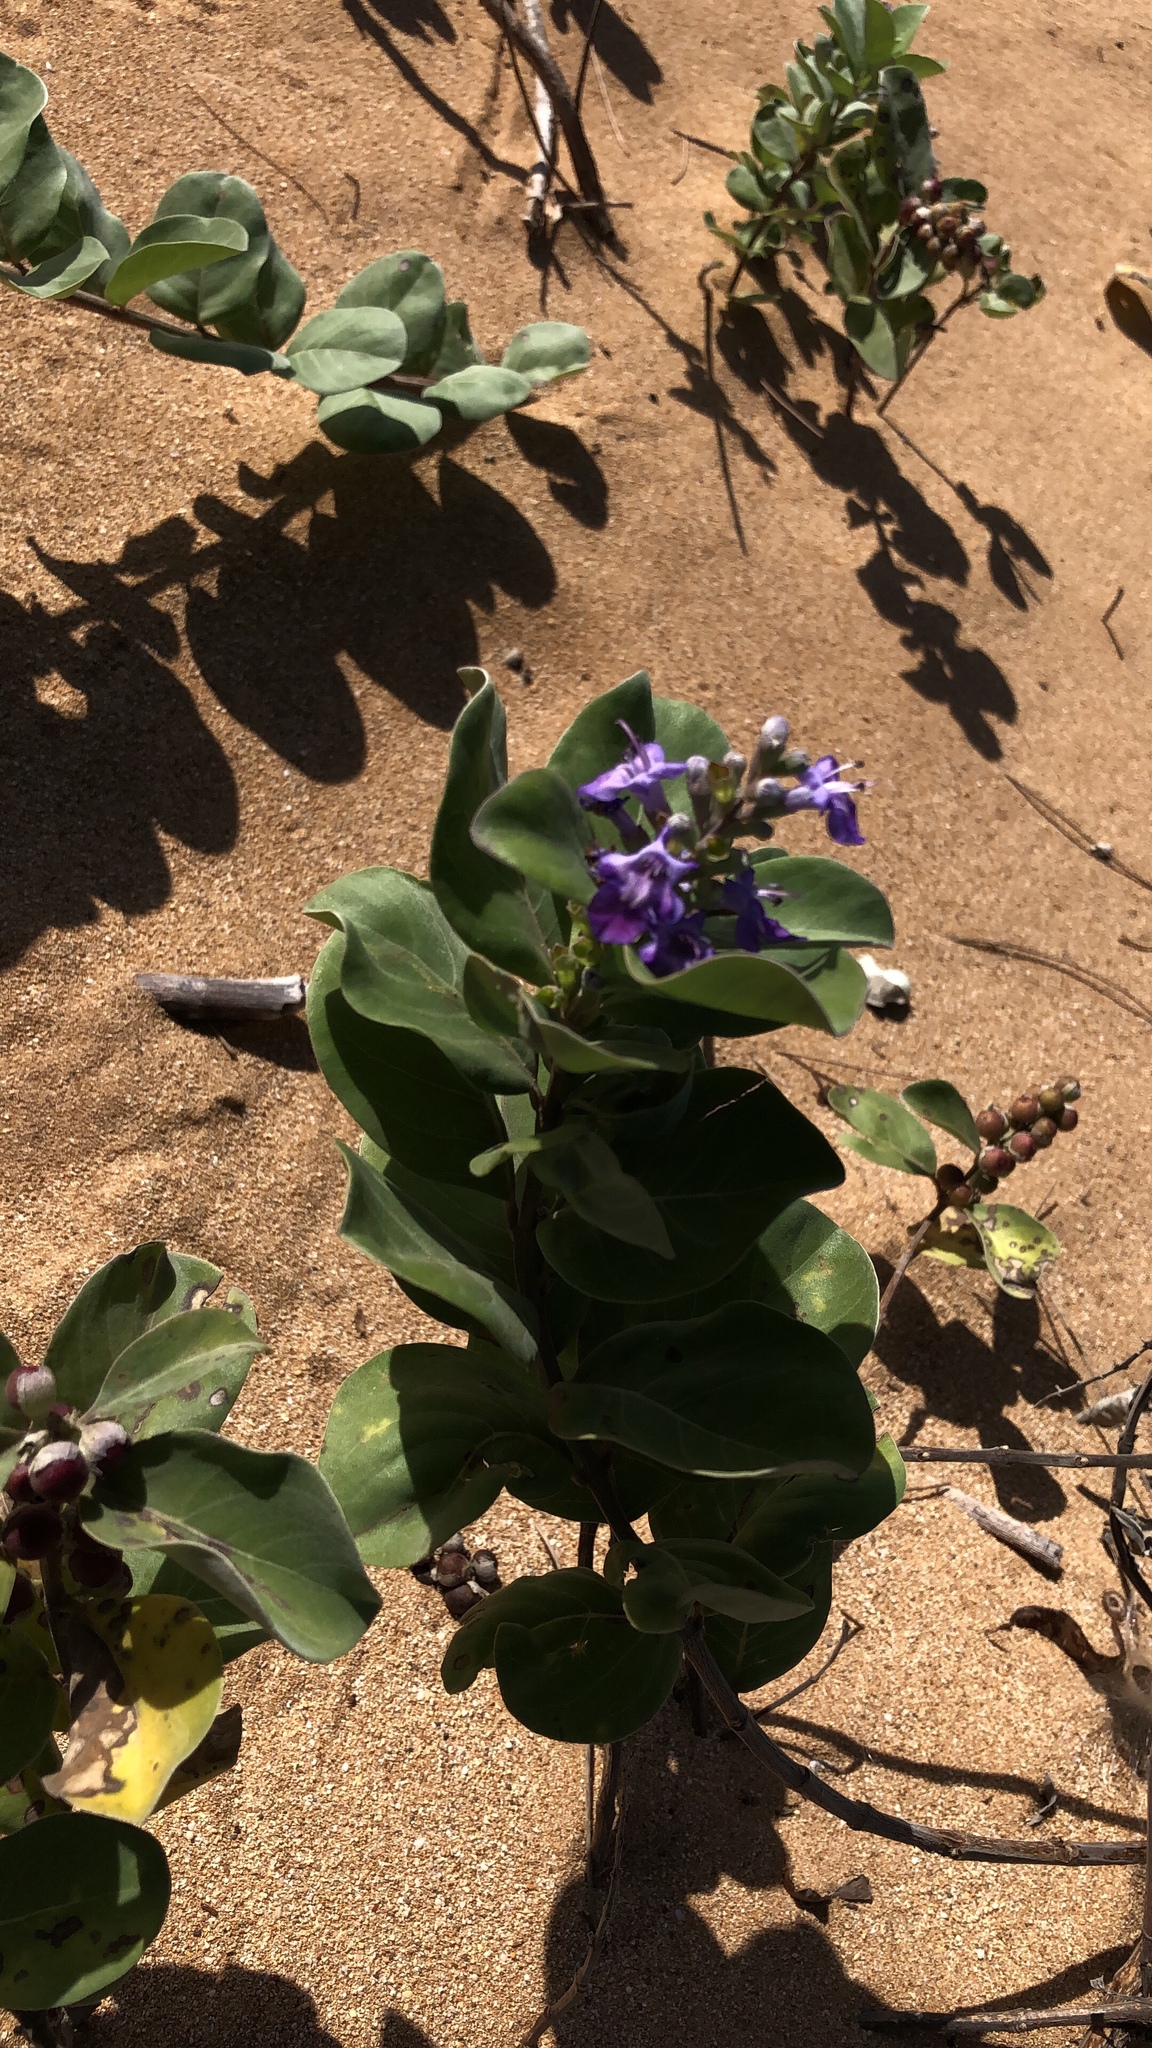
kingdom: Plantae
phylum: Tracheophyta
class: Magnoliopsida
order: Lamiales
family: Lamiaceae
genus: Vitex
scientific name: Vitex rotundifolia
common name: Beach vitex
